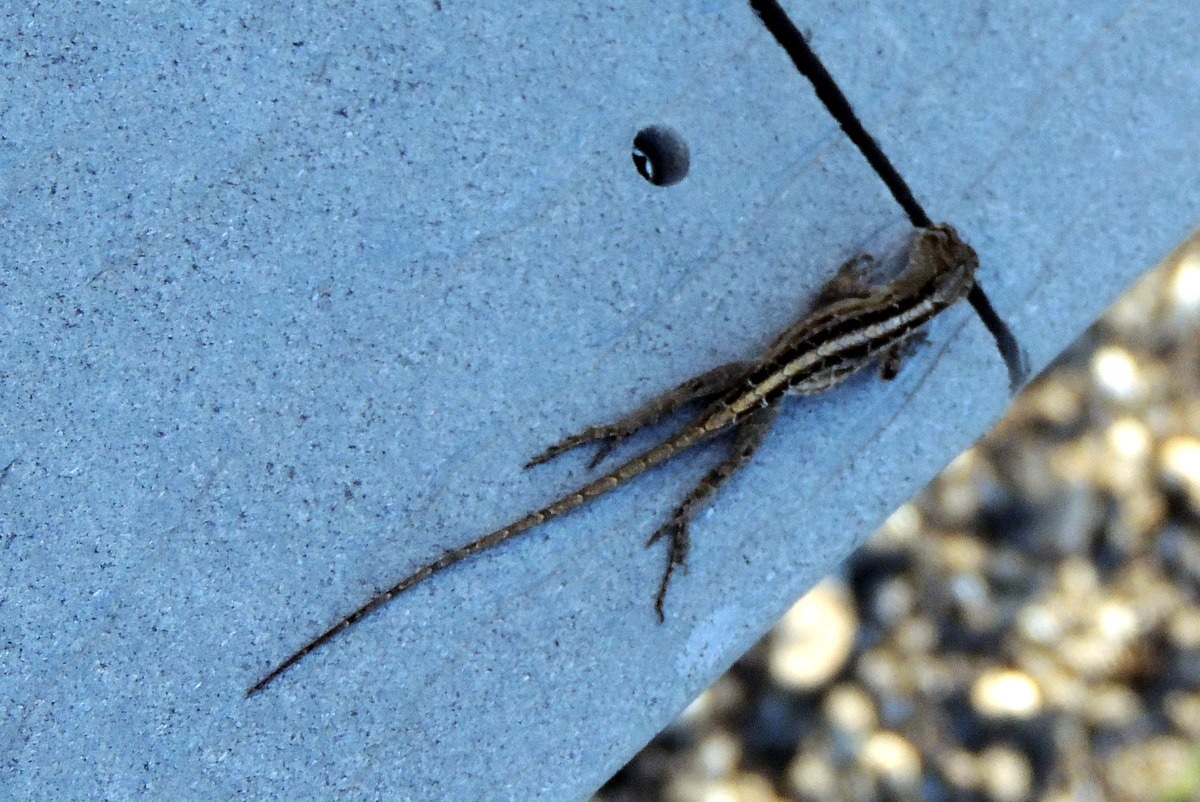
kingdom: Animalia
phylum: Chordata
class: Squamata
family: Dactyloidae
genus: Anolis
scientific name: Anolis sagrei
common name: Brown anole
